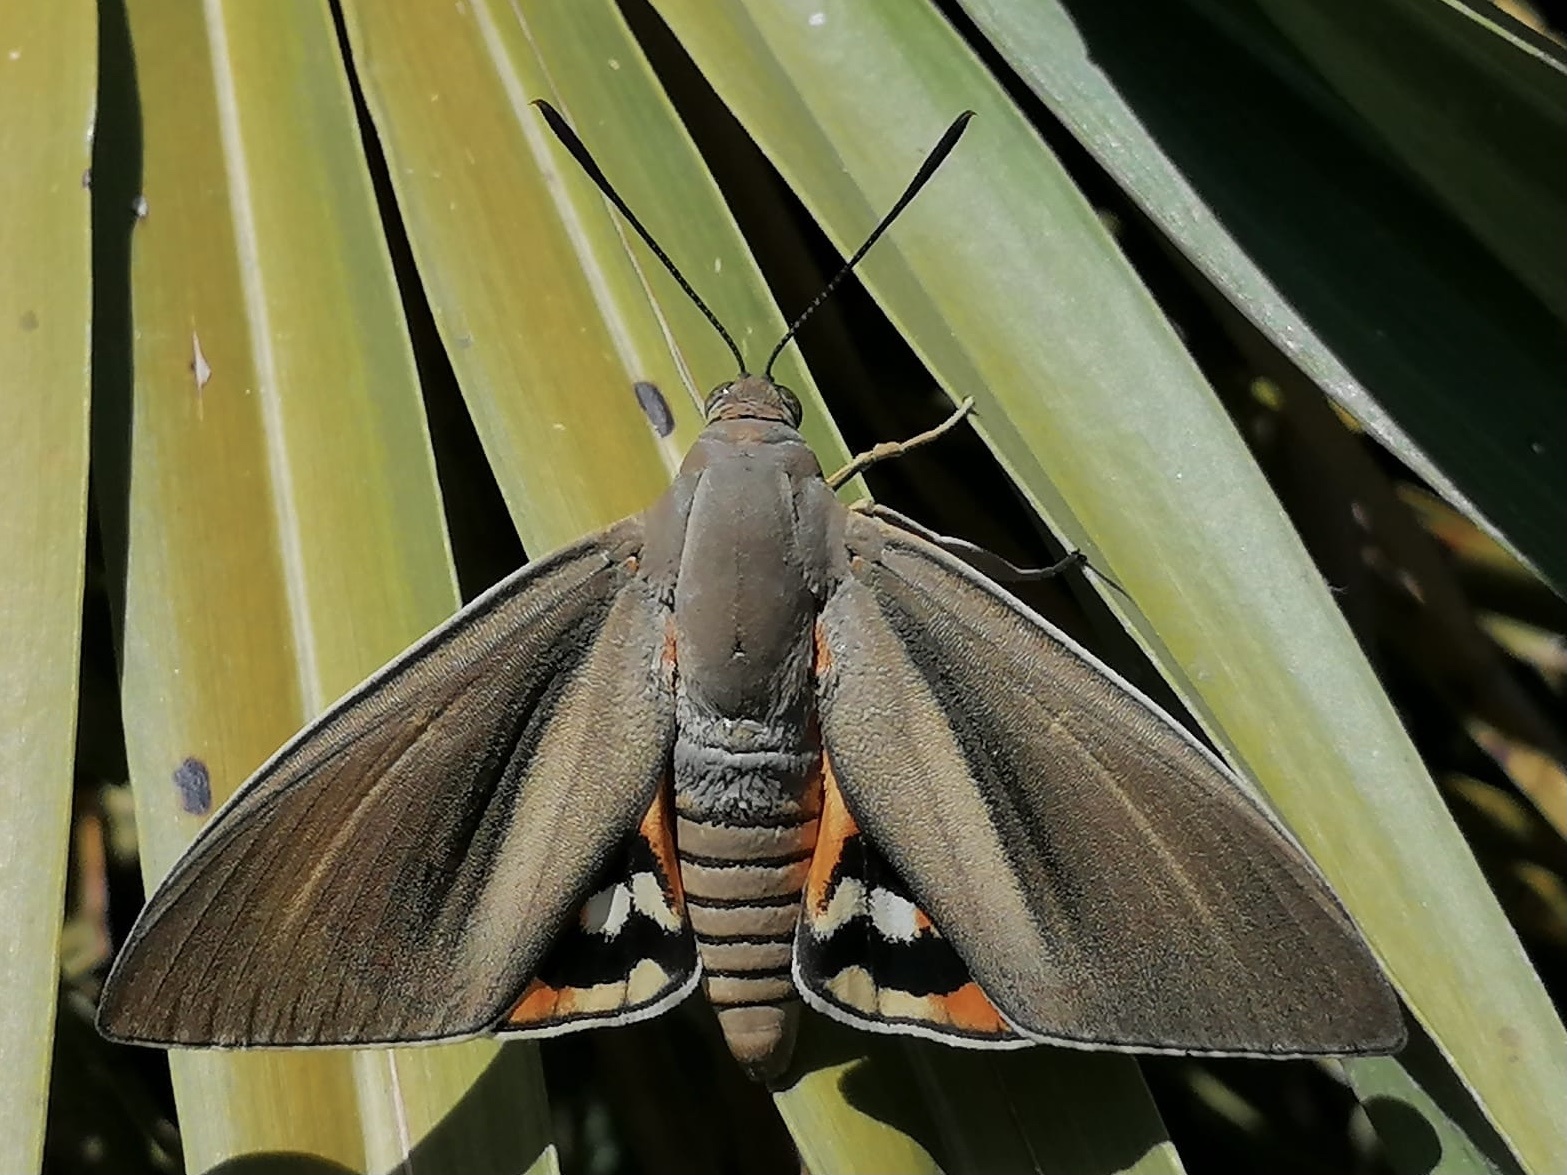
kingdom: Animalia
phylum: Arthropoda
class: Insecta
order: Lepidoptera
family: Castniidae
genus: Paysandisia
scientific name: Paysandisia archon
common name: Palm moth
